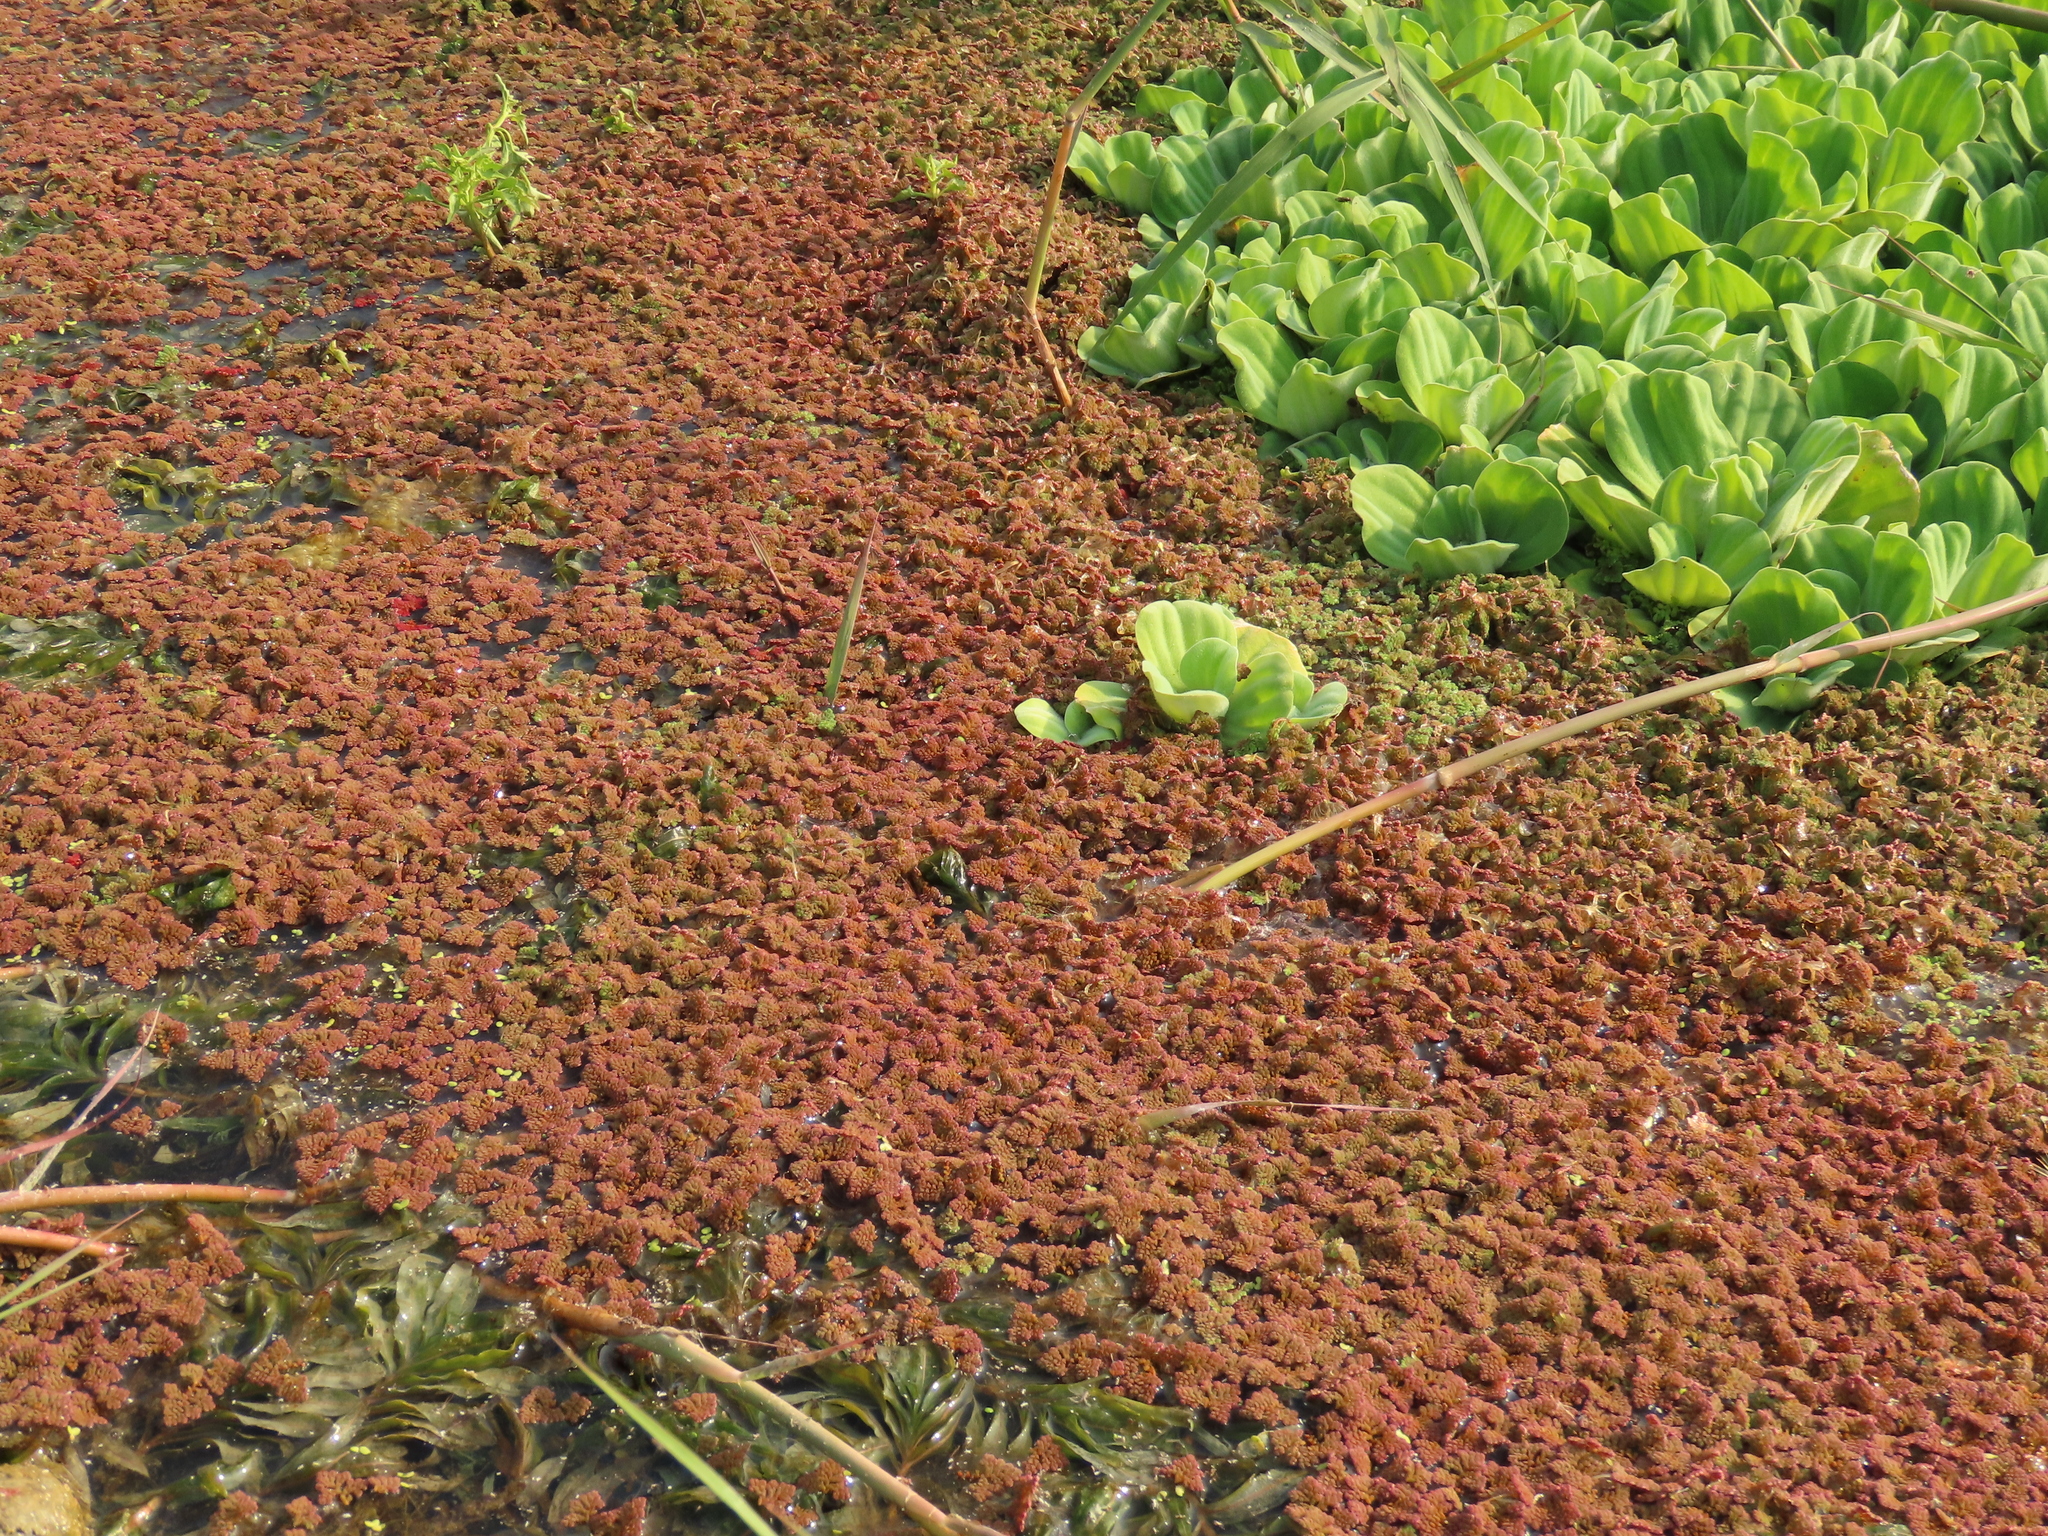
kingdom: Plantae
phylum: Tracheophyta
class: Polypodiopsida
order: Salviniales
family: Salviniaceae
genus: Azolla
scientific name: Azolla pinnata
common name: Ferny azolla
